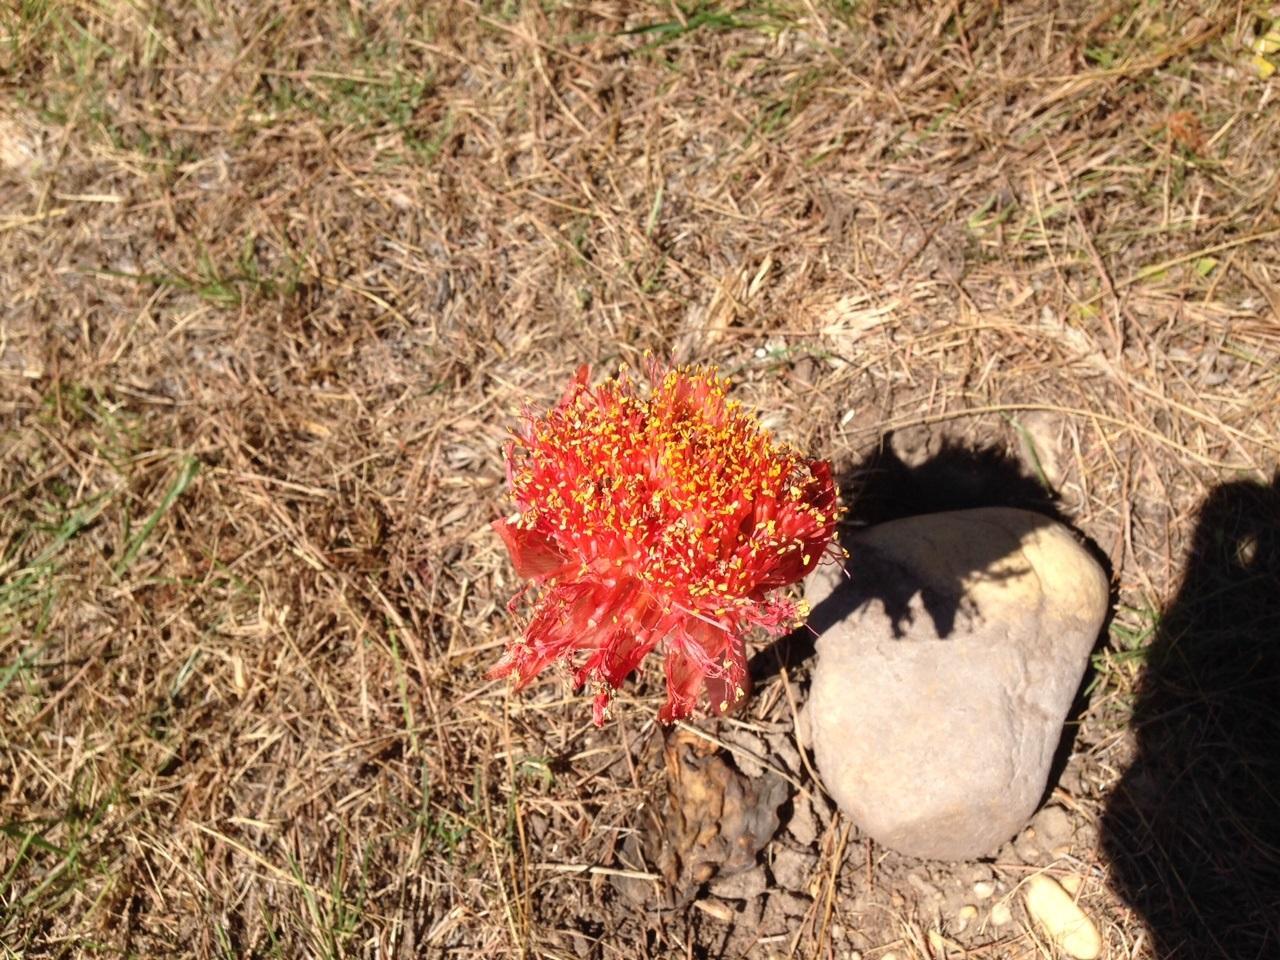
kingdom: Plantae
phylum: Tracheophyta
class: Liliopsida
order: Asparagales
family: Amaryllidaceae
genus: Haemanthus
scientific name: Haemanthus sanguineus
